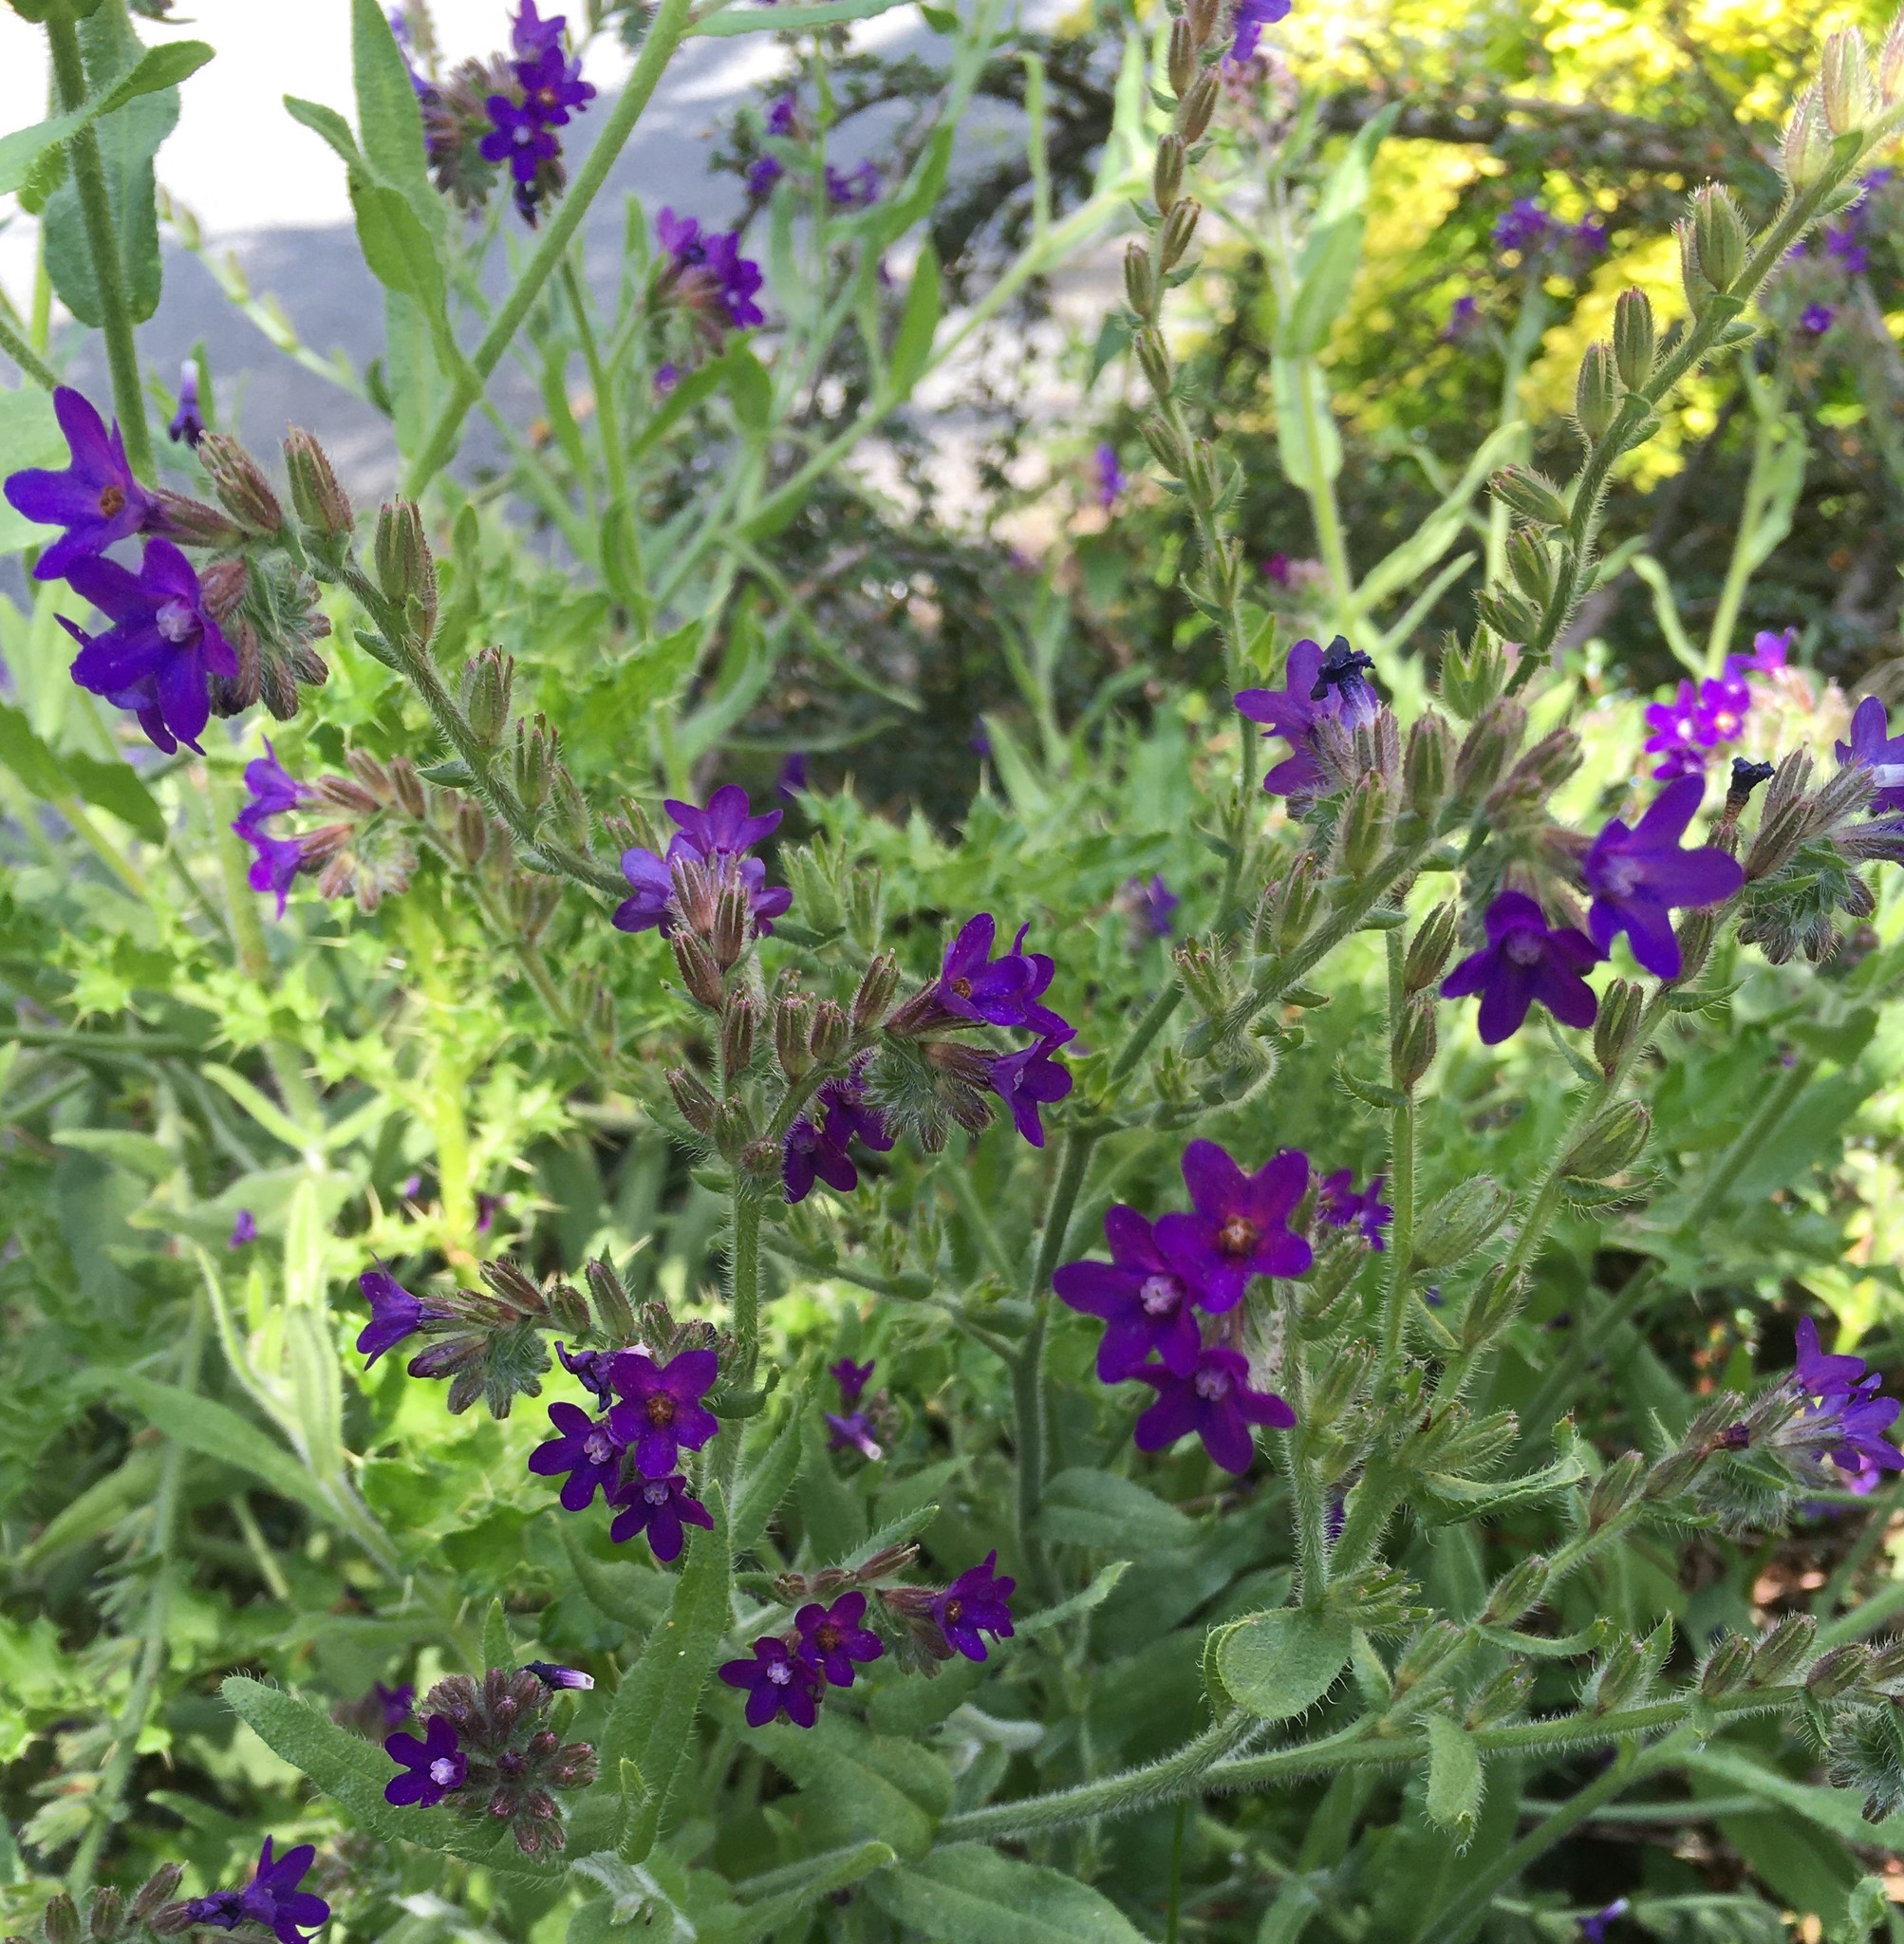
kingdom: Plantae
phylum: Tracheophyta
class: Magnoliopsida
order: Boraginales
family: Boraginaceae
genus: Anchusa
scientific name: Anchusa officinalis
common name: Alkanet
